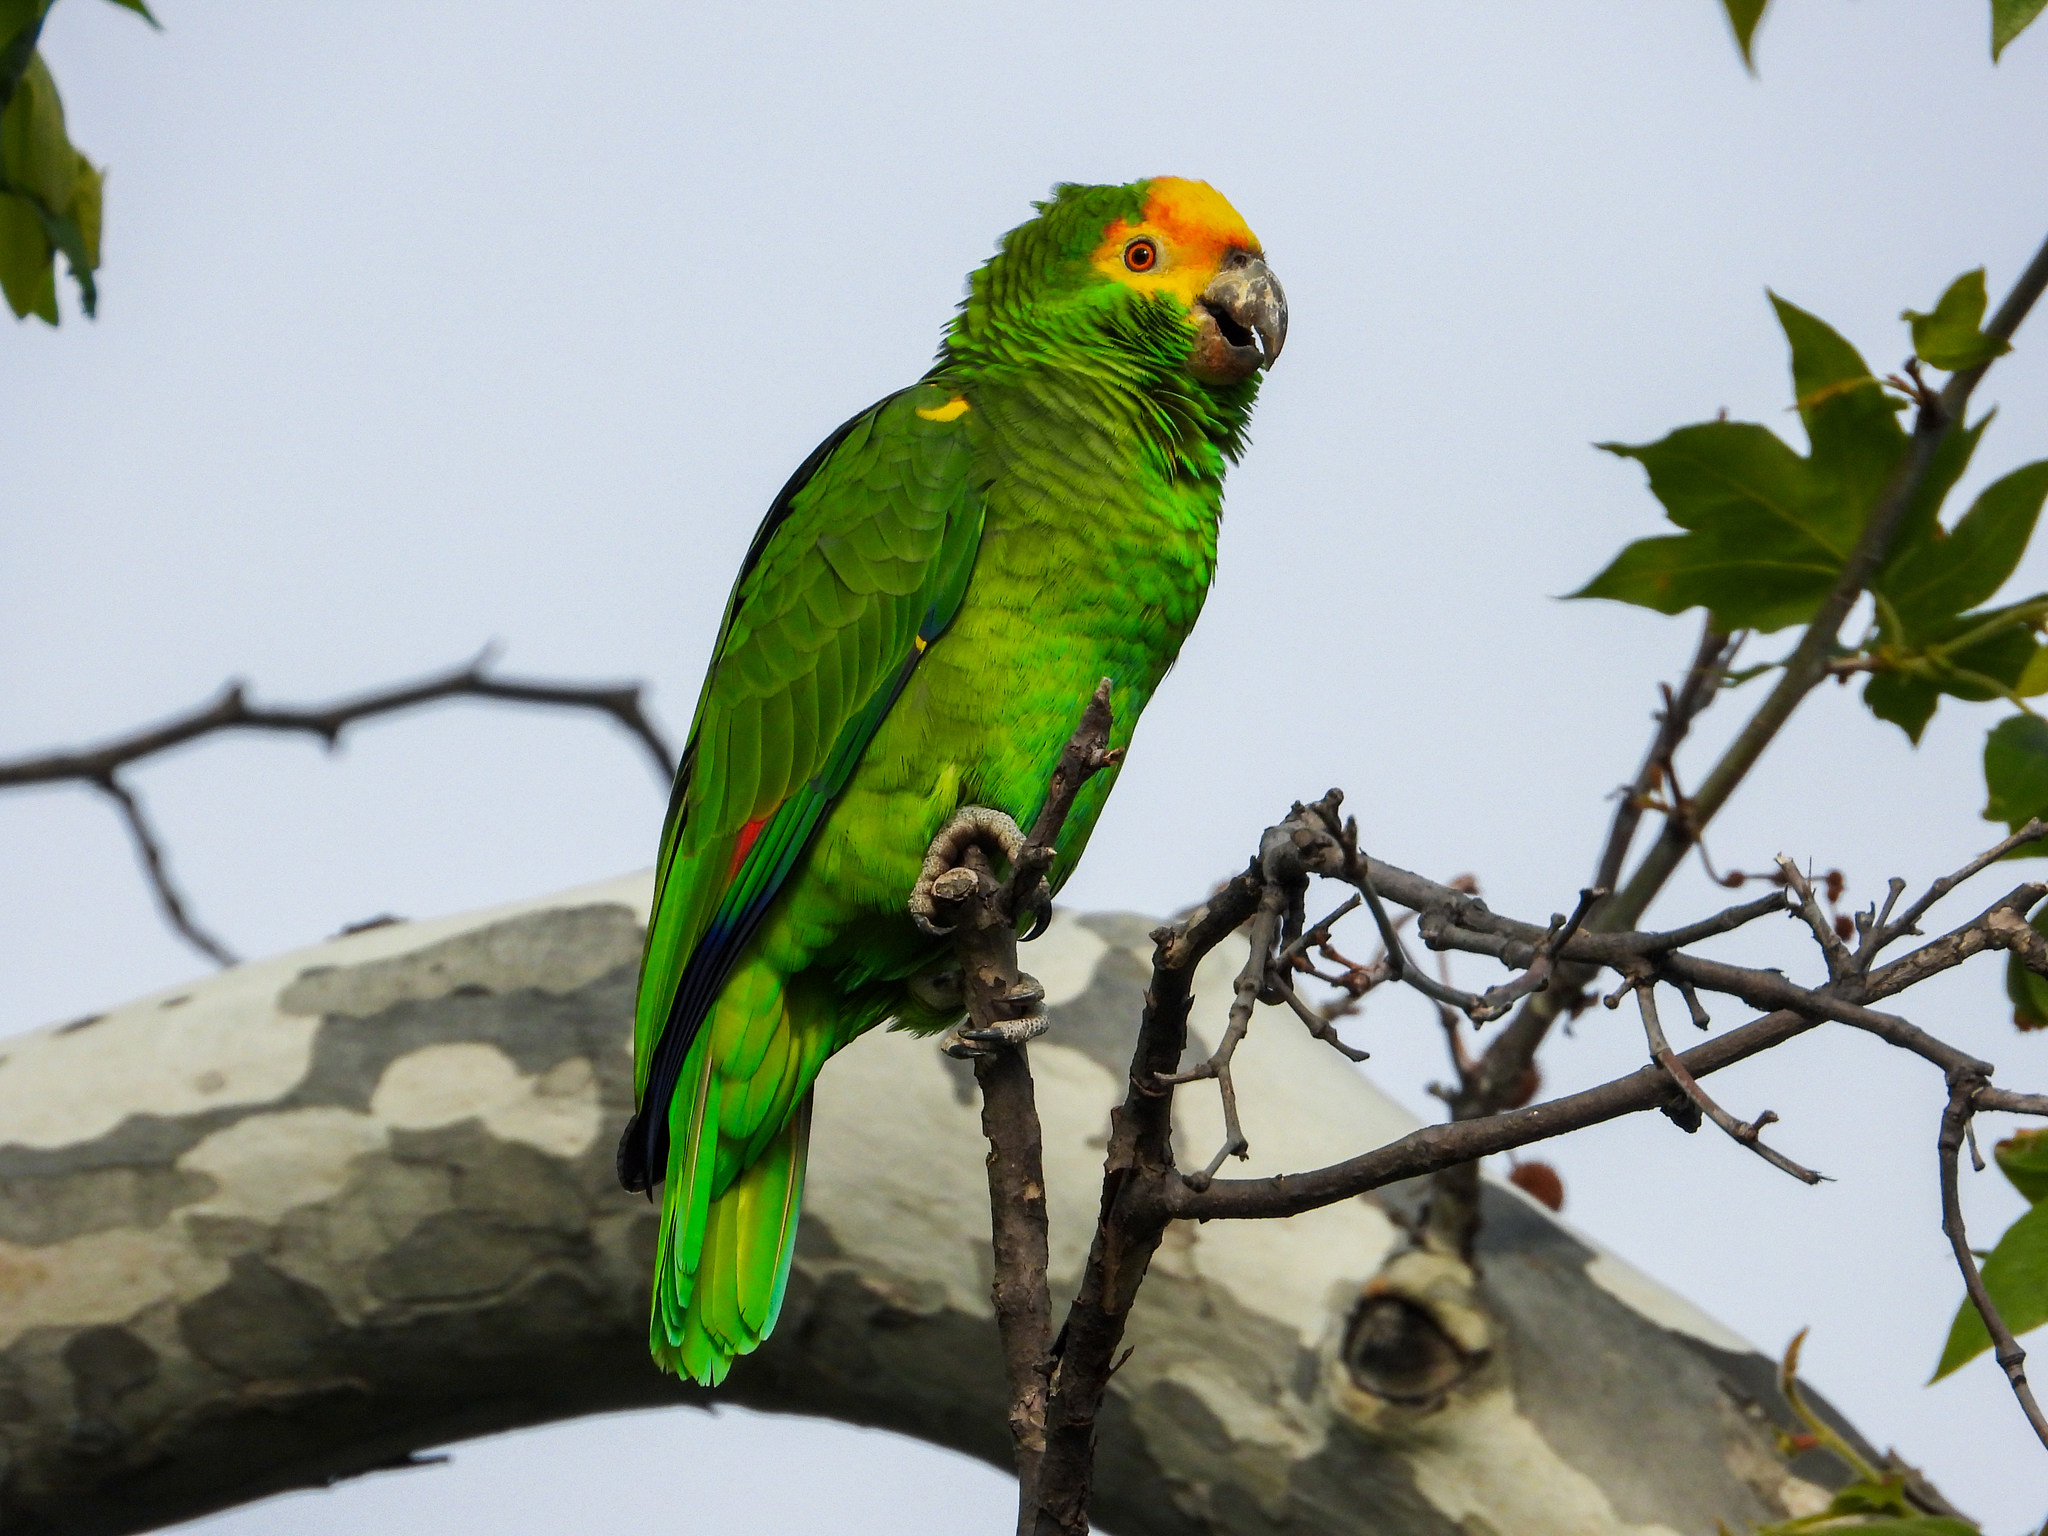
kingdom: Animalia
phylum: Chordata
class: Aves
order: Psittaciformes
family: Psittacidae
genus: Amazona
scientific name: Amazona
